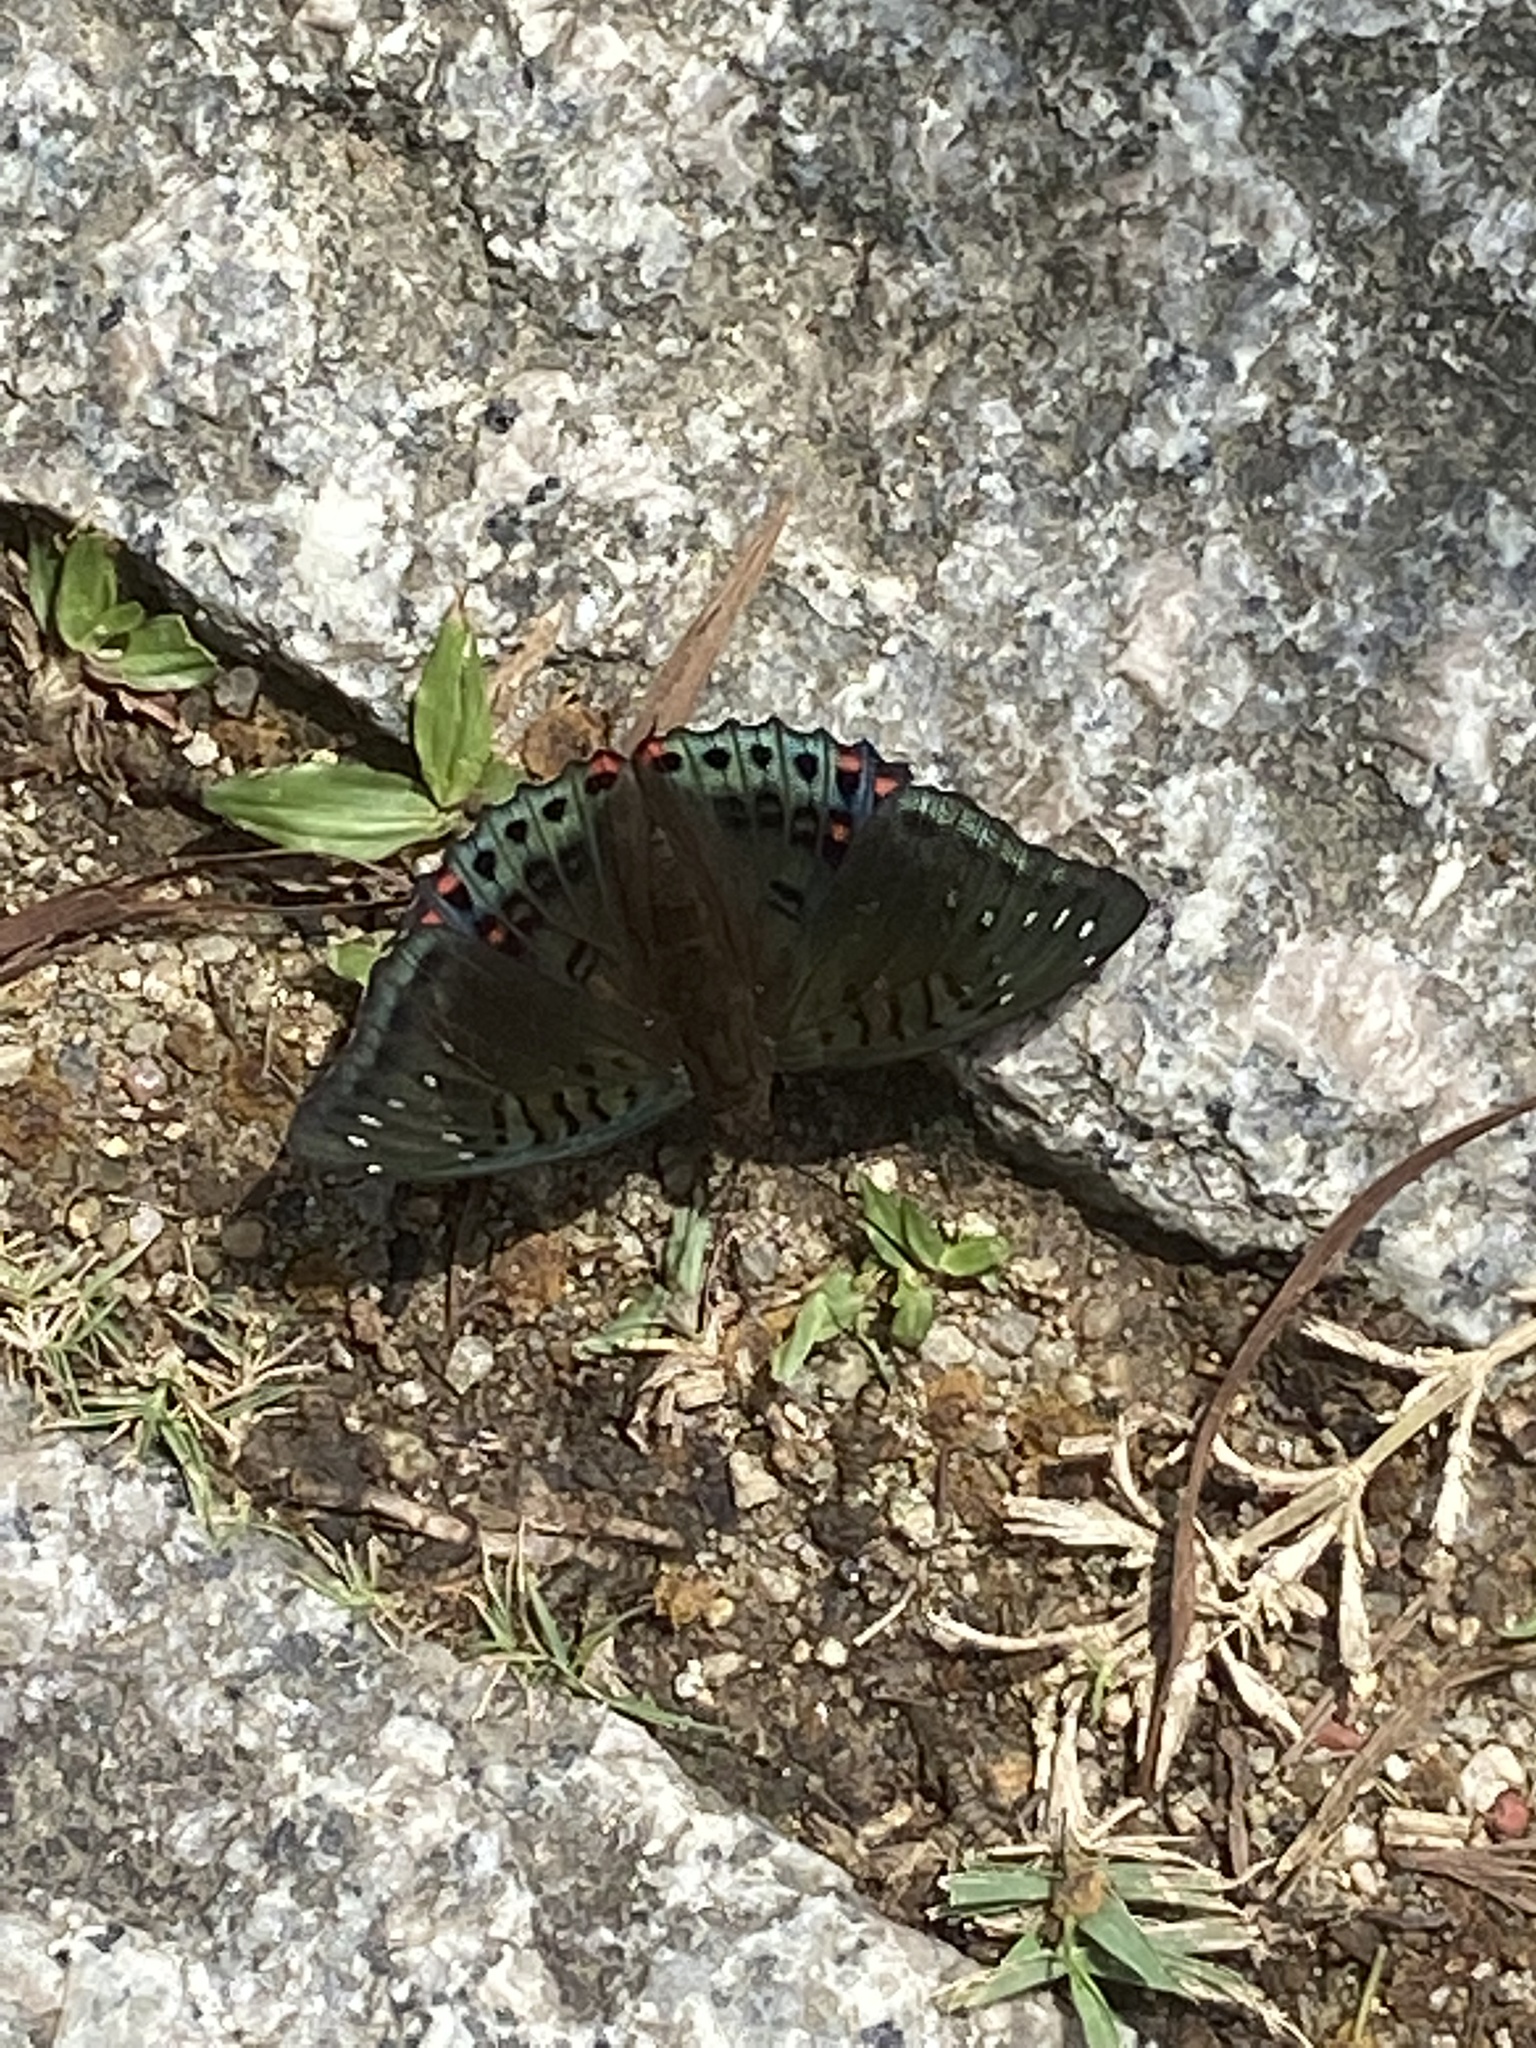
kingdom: Animalia
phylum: Arthropoda
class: Insecta
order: Lepidoptera
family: Nymphalidae
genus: Euthalia
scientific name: Euthalia lubentina
